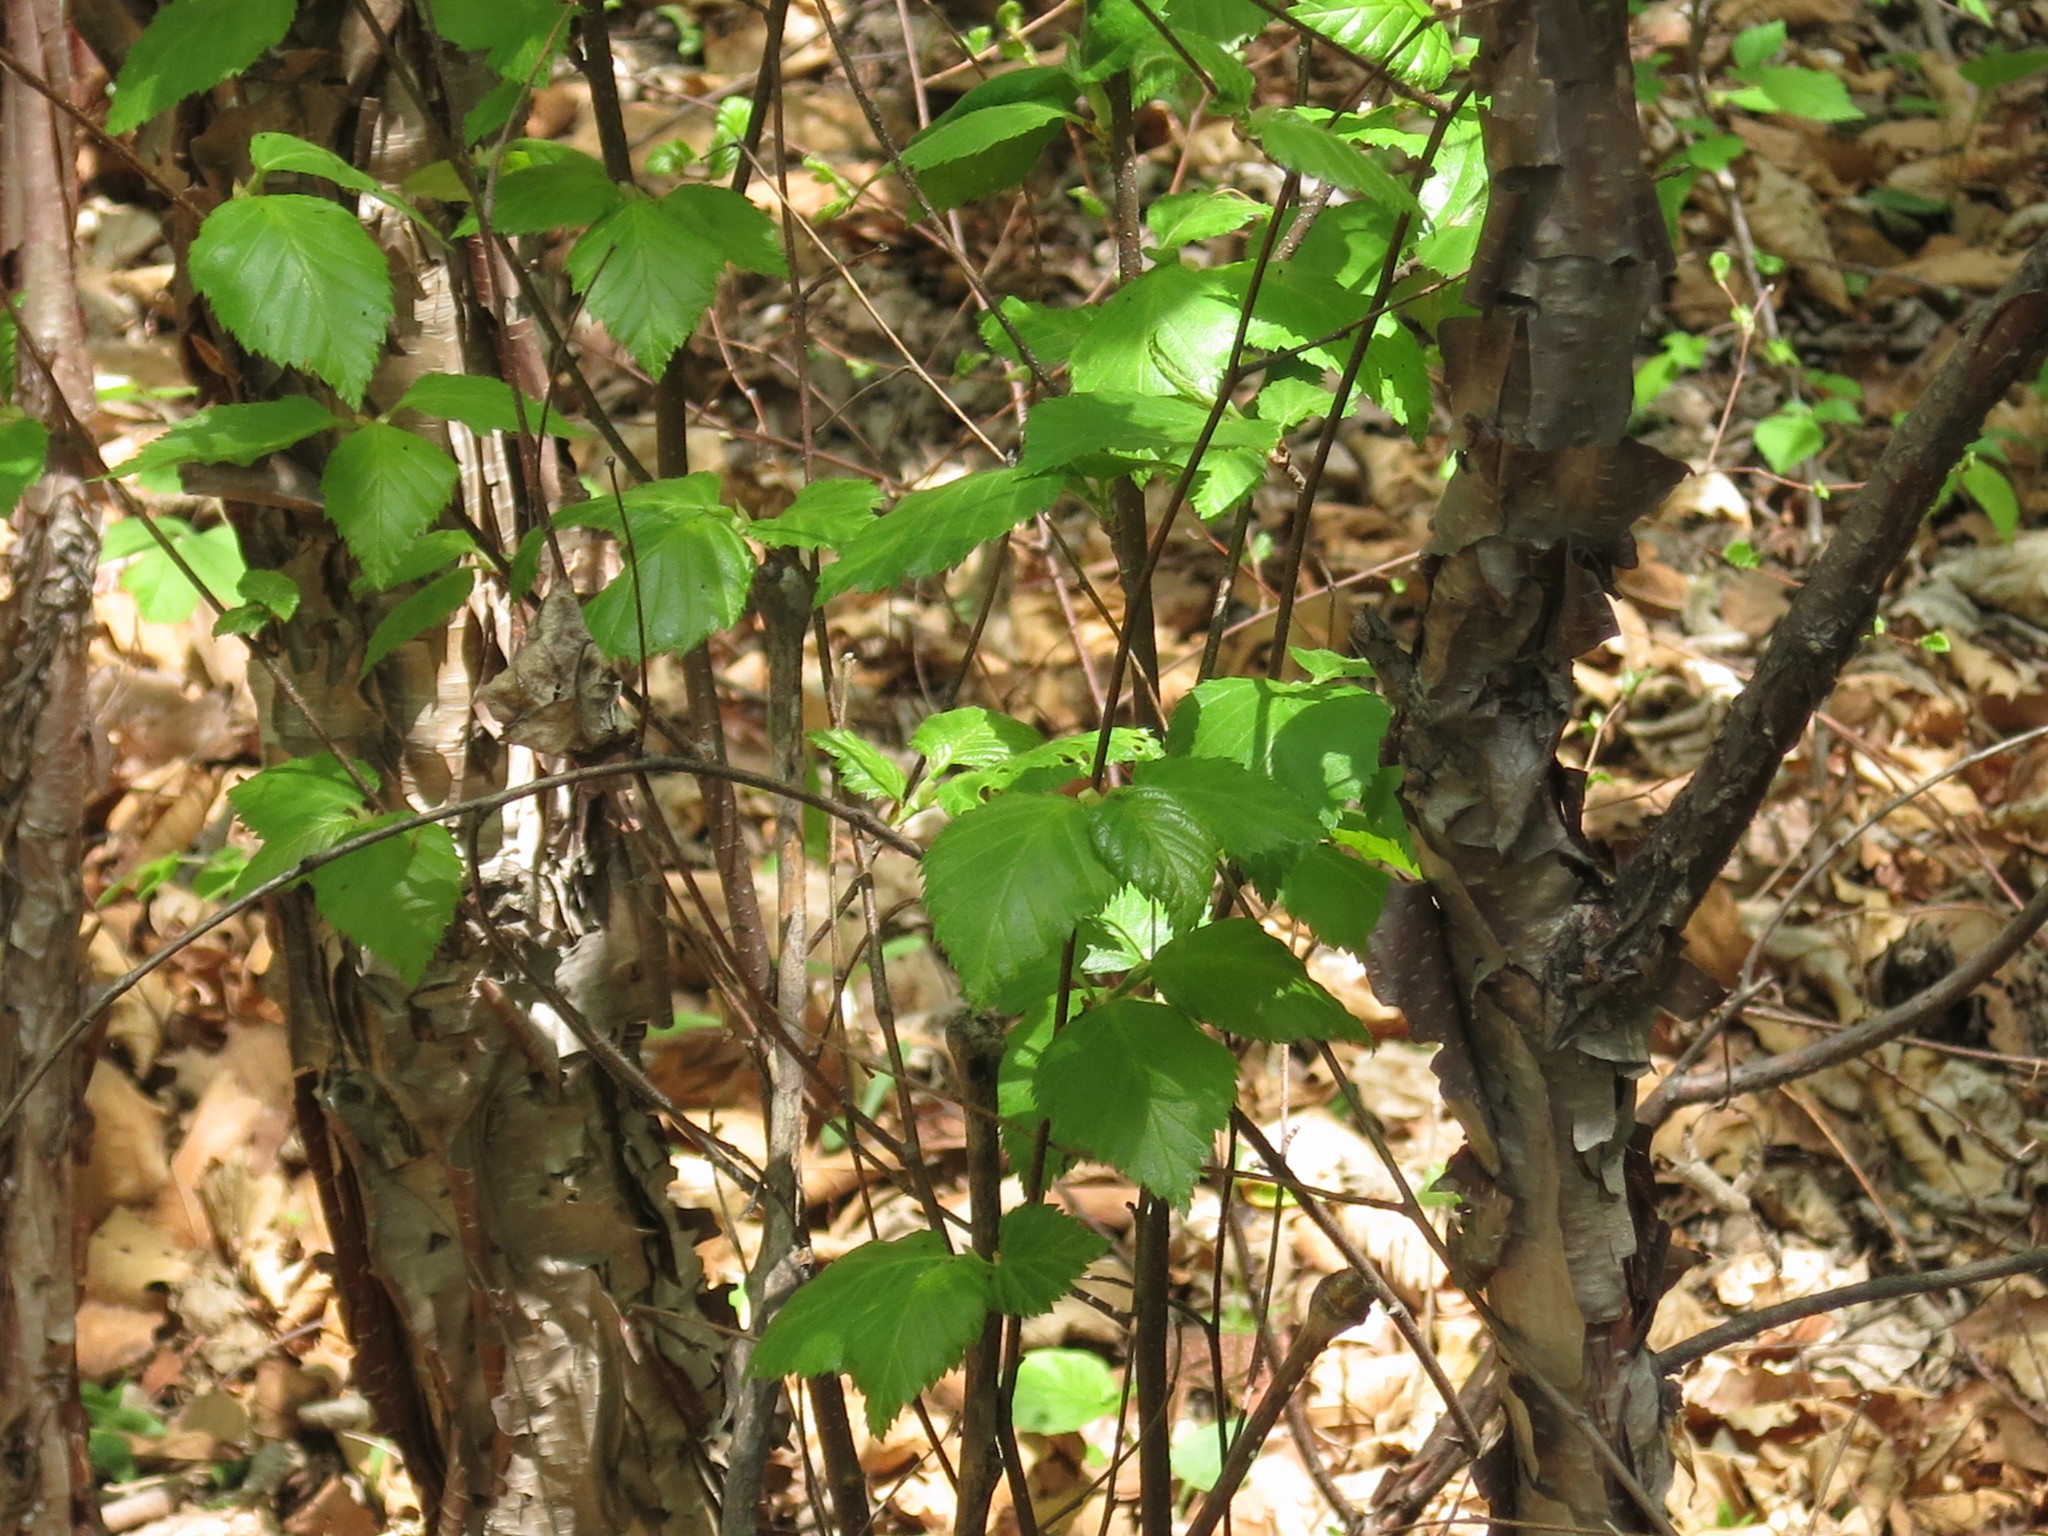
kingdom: Plantae
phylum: Tracheophyta
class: Magnoliopsida
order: Fagales
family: Betulaceae
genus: Betula
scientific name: Betula dauurica
